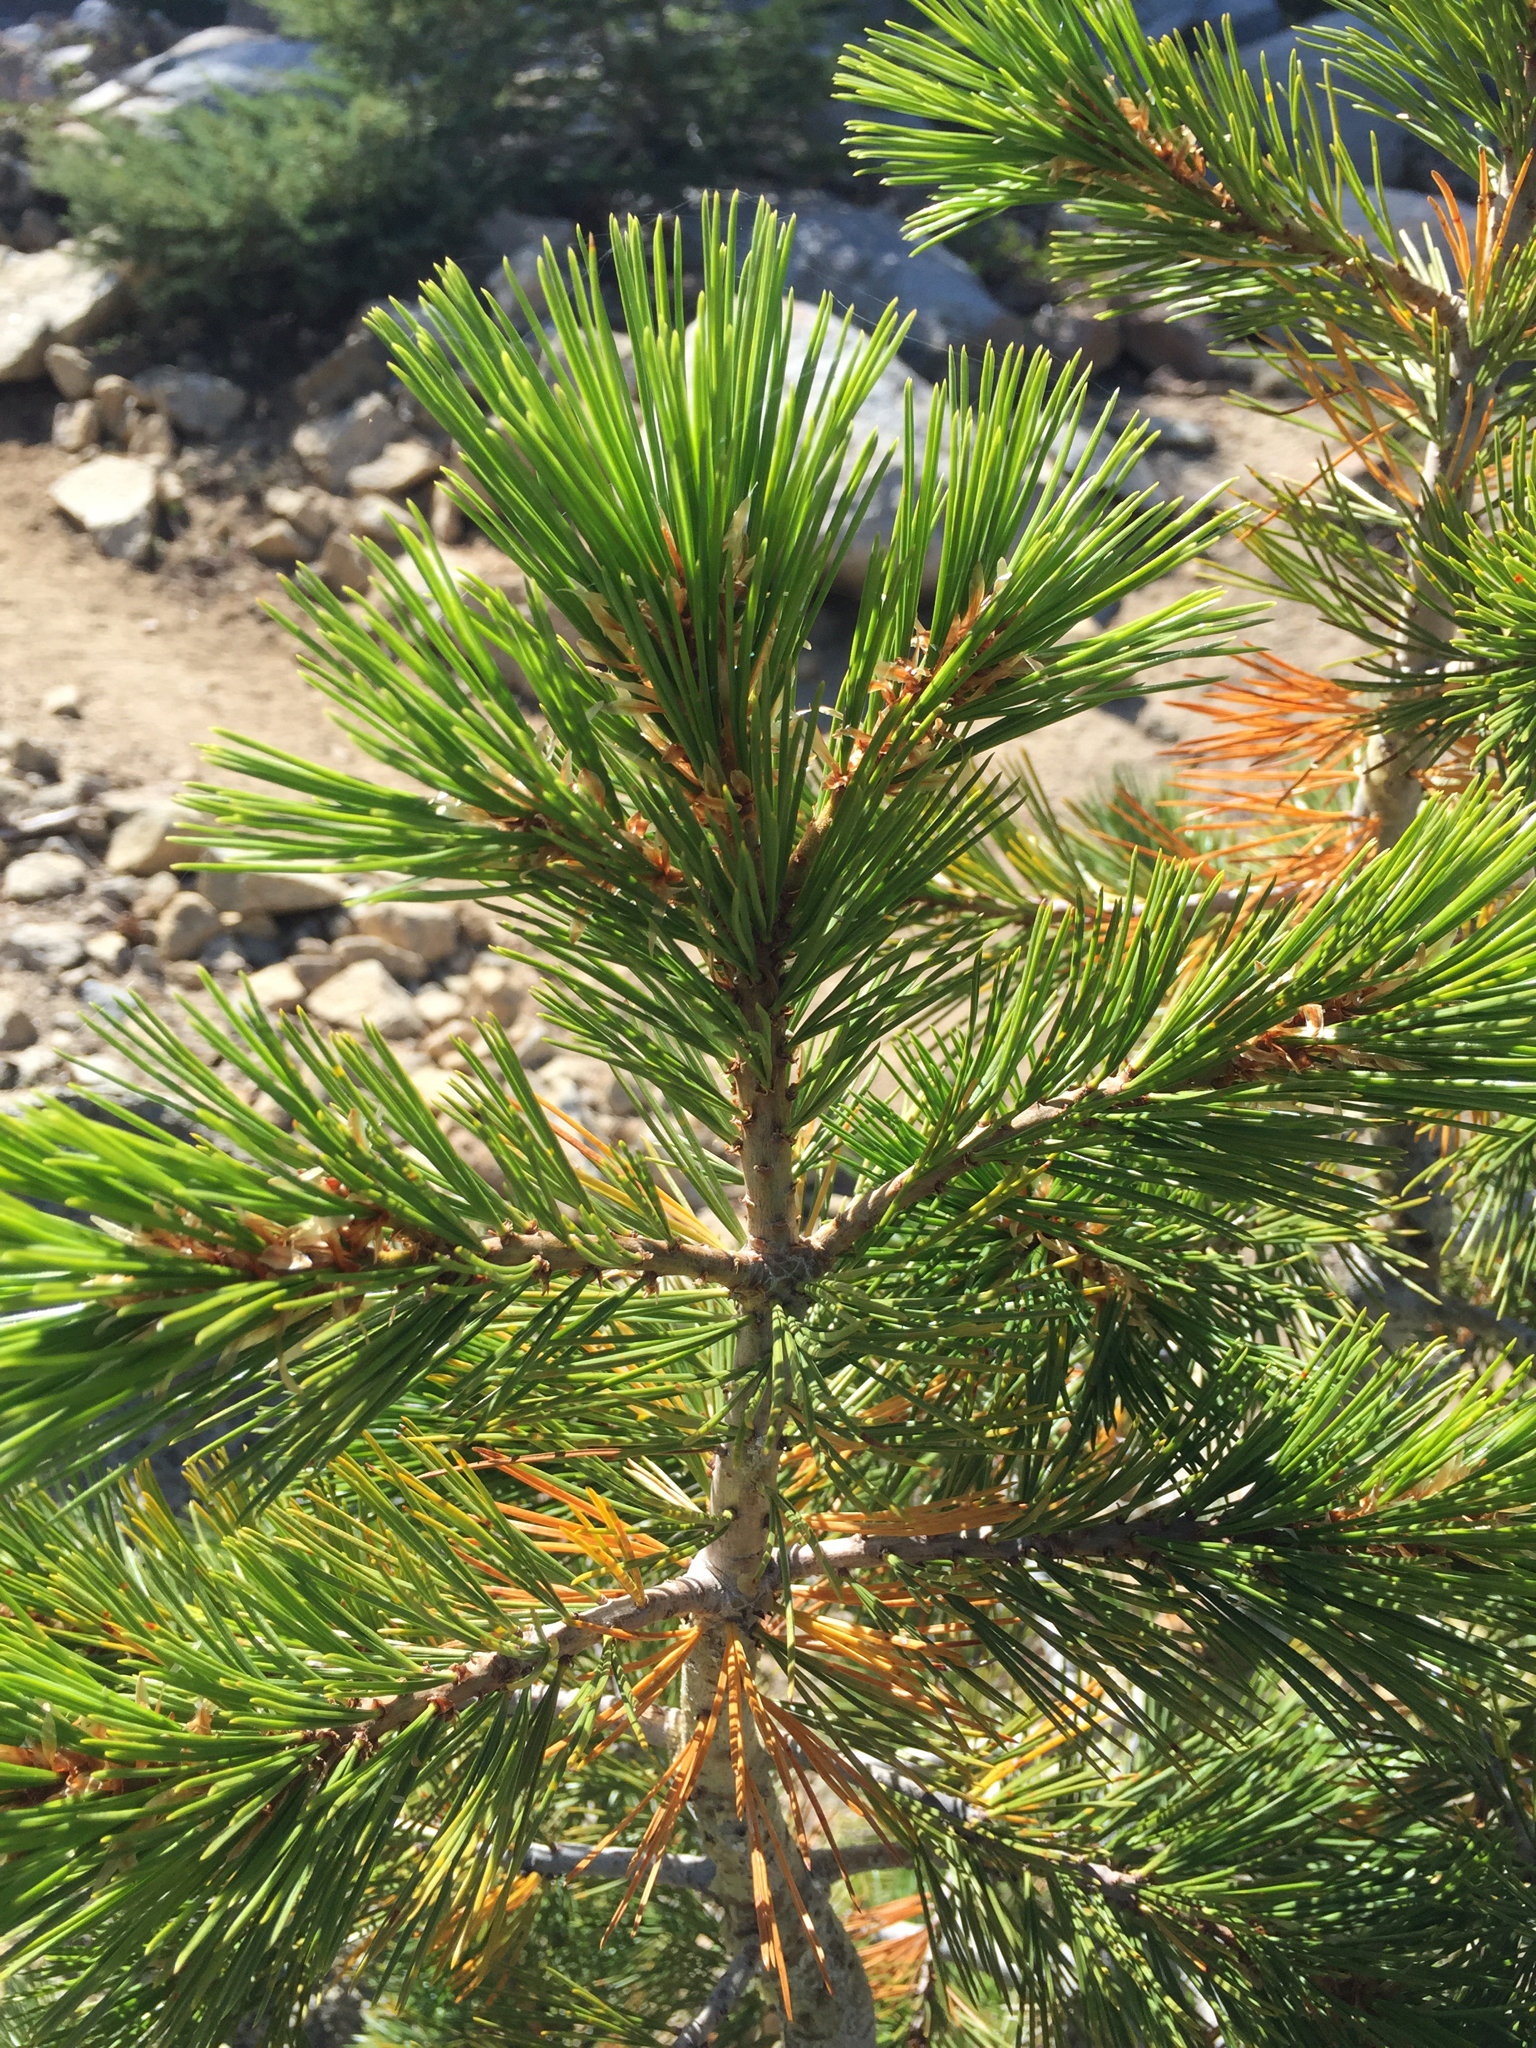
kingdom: Plantae
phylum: Tracheophyta
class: Pinopsida
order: Pinales
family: Pinaceae
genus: Pinus
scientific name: Pinus contorta
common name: Lodgepole pine
